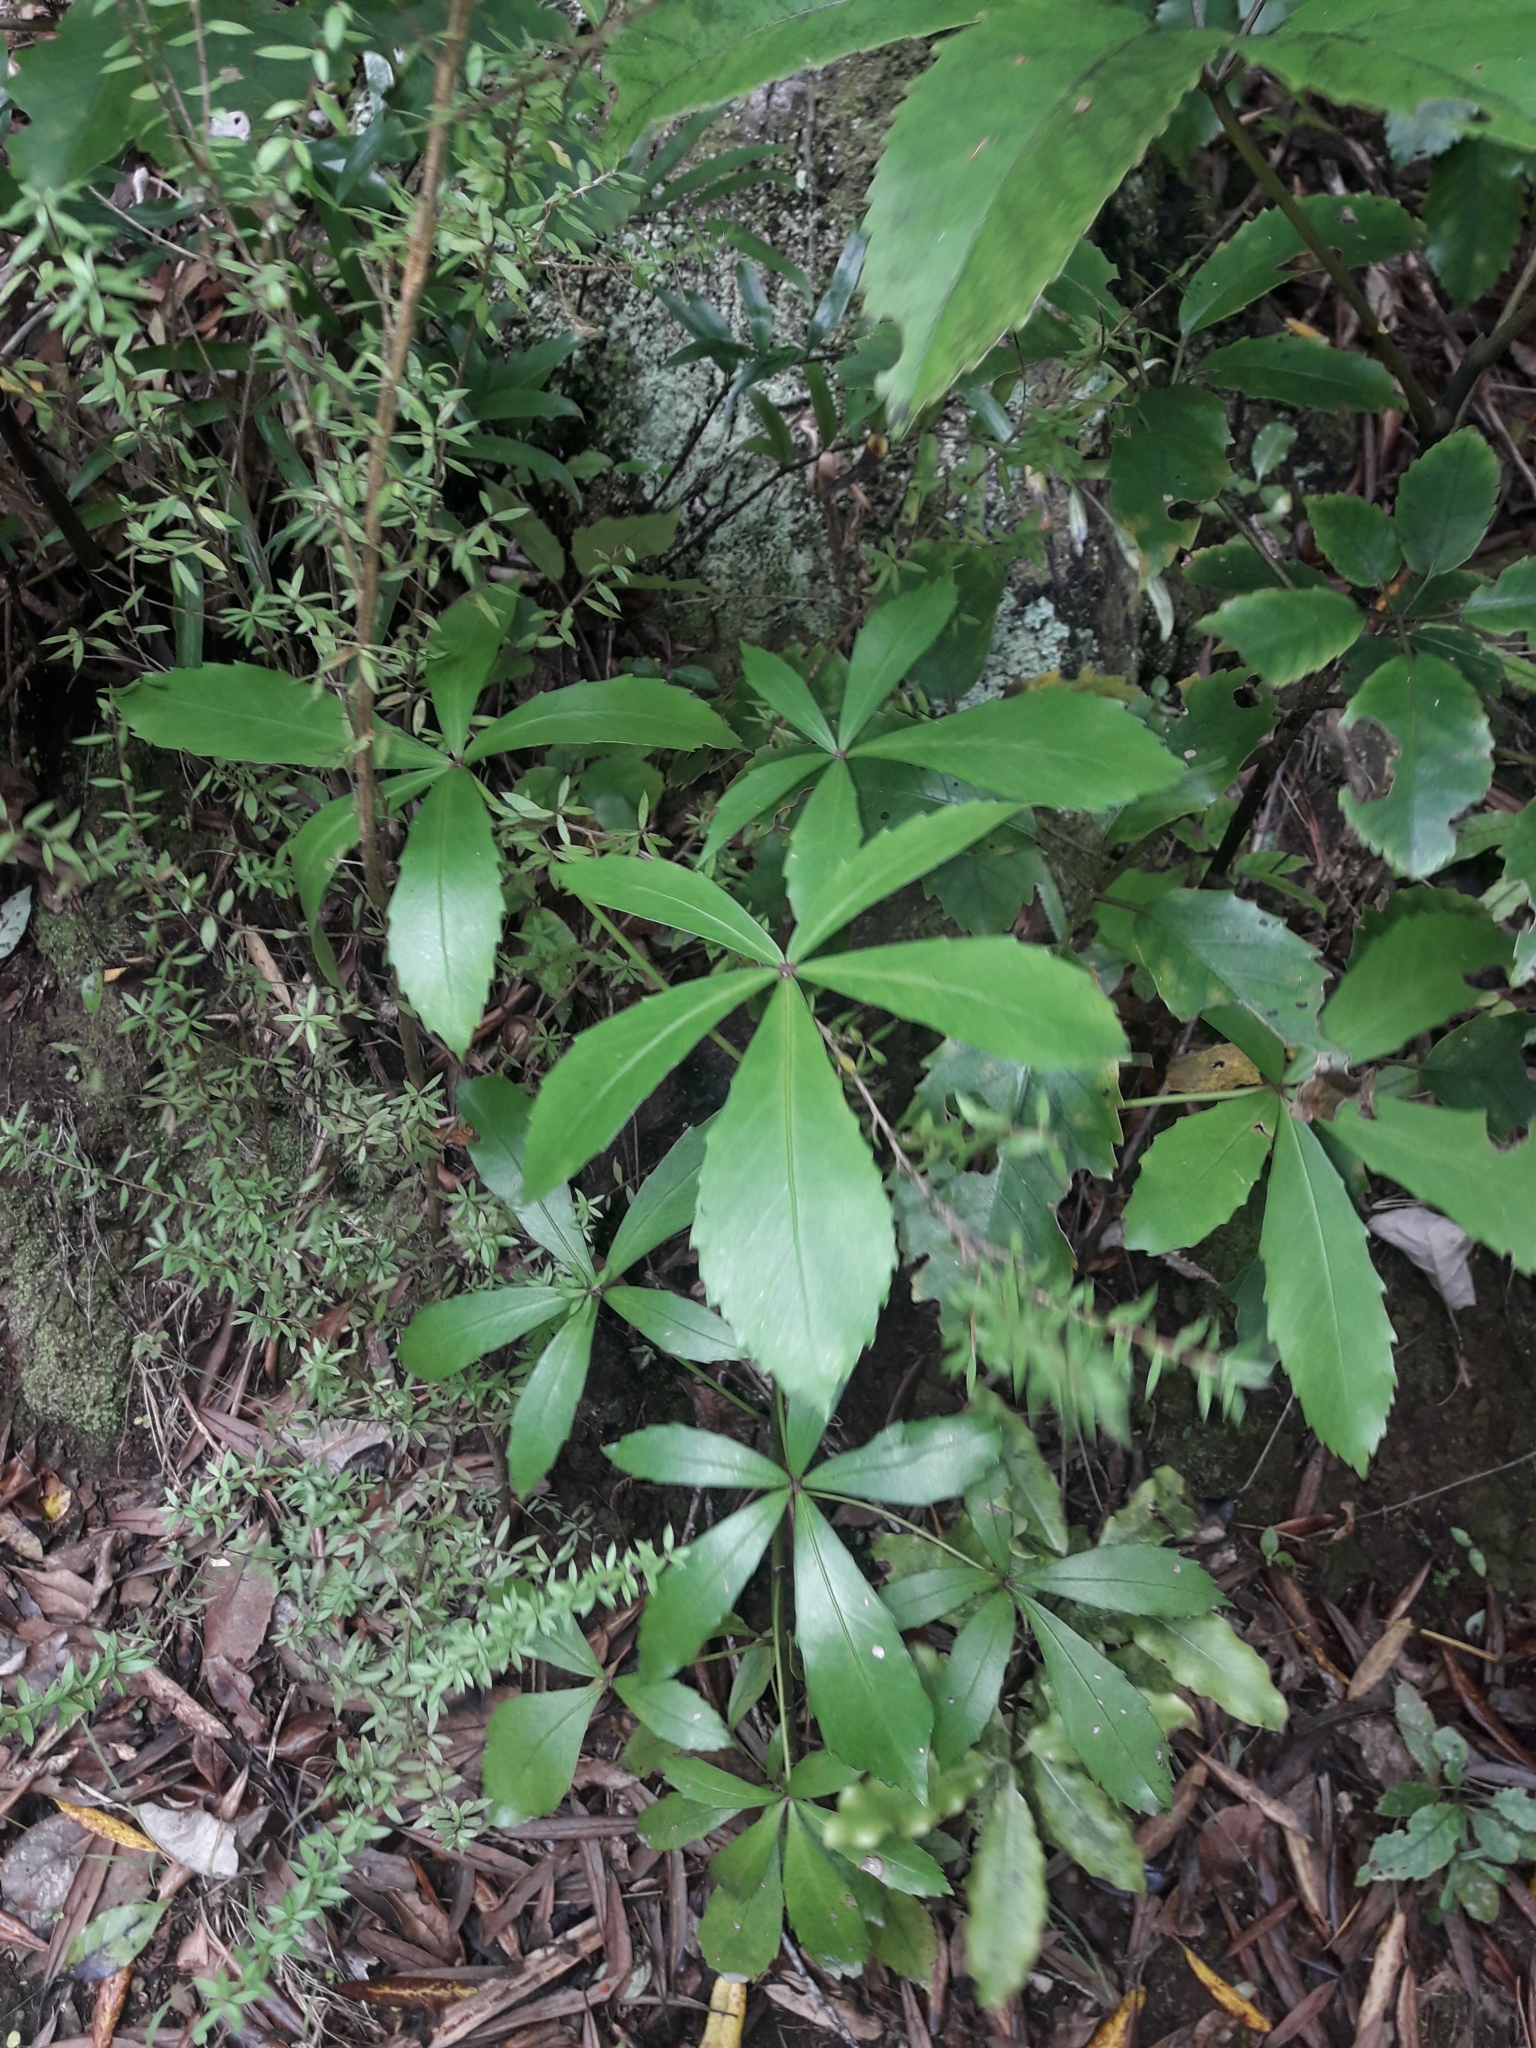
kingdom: Plantae
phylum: Tracheophyta
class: Magnoliopsida
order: Apiales
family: Araliaceae
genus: Pseudopanax
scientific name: Pseudopanax lessonii
